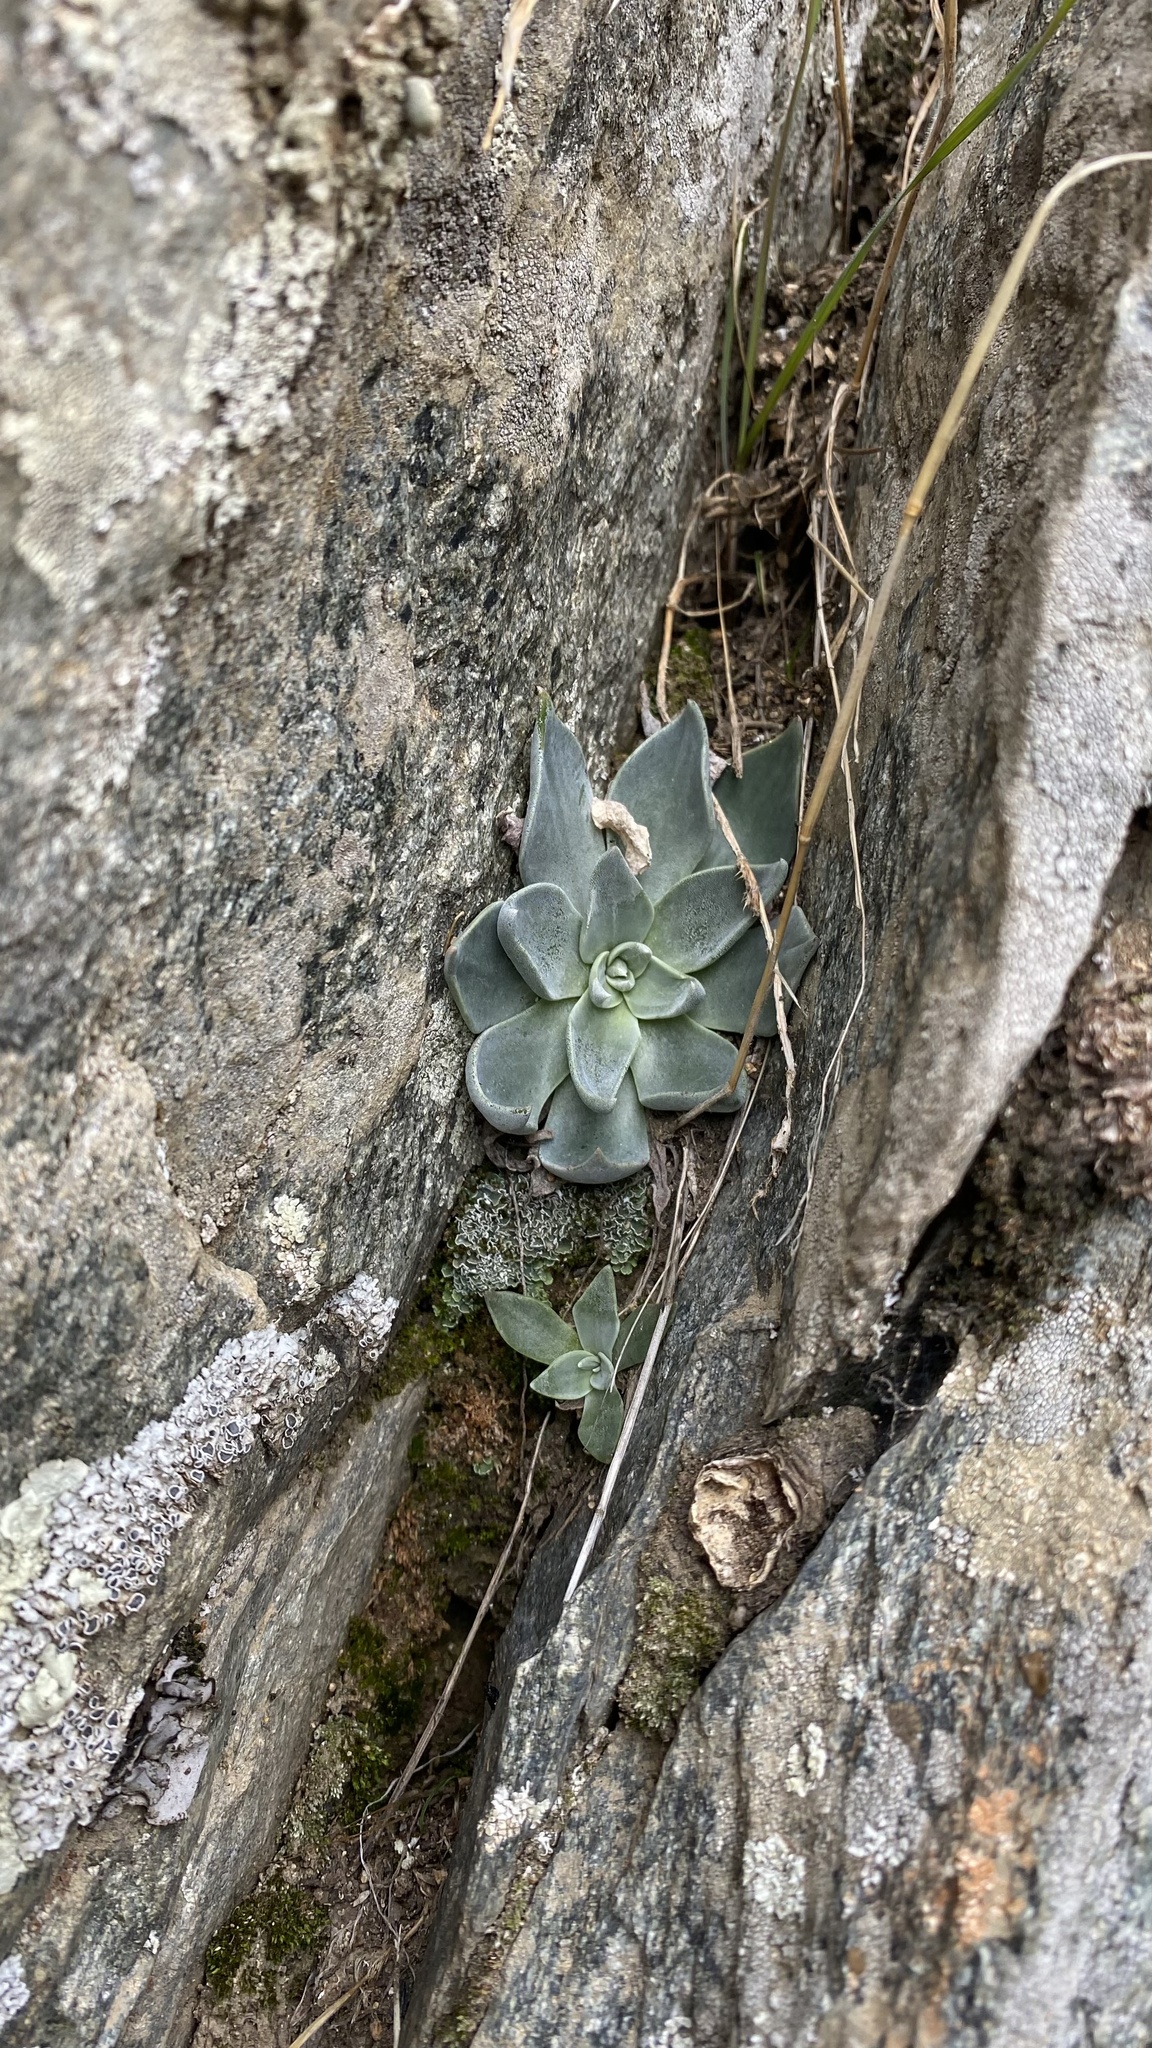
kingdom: Plantae
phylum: Tracheophyta
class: Magnoliopsida
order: Saxifragales
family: Crassulaceae
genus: Dudleya
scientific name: Dudleya cymosa
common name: Canyon dudleya
